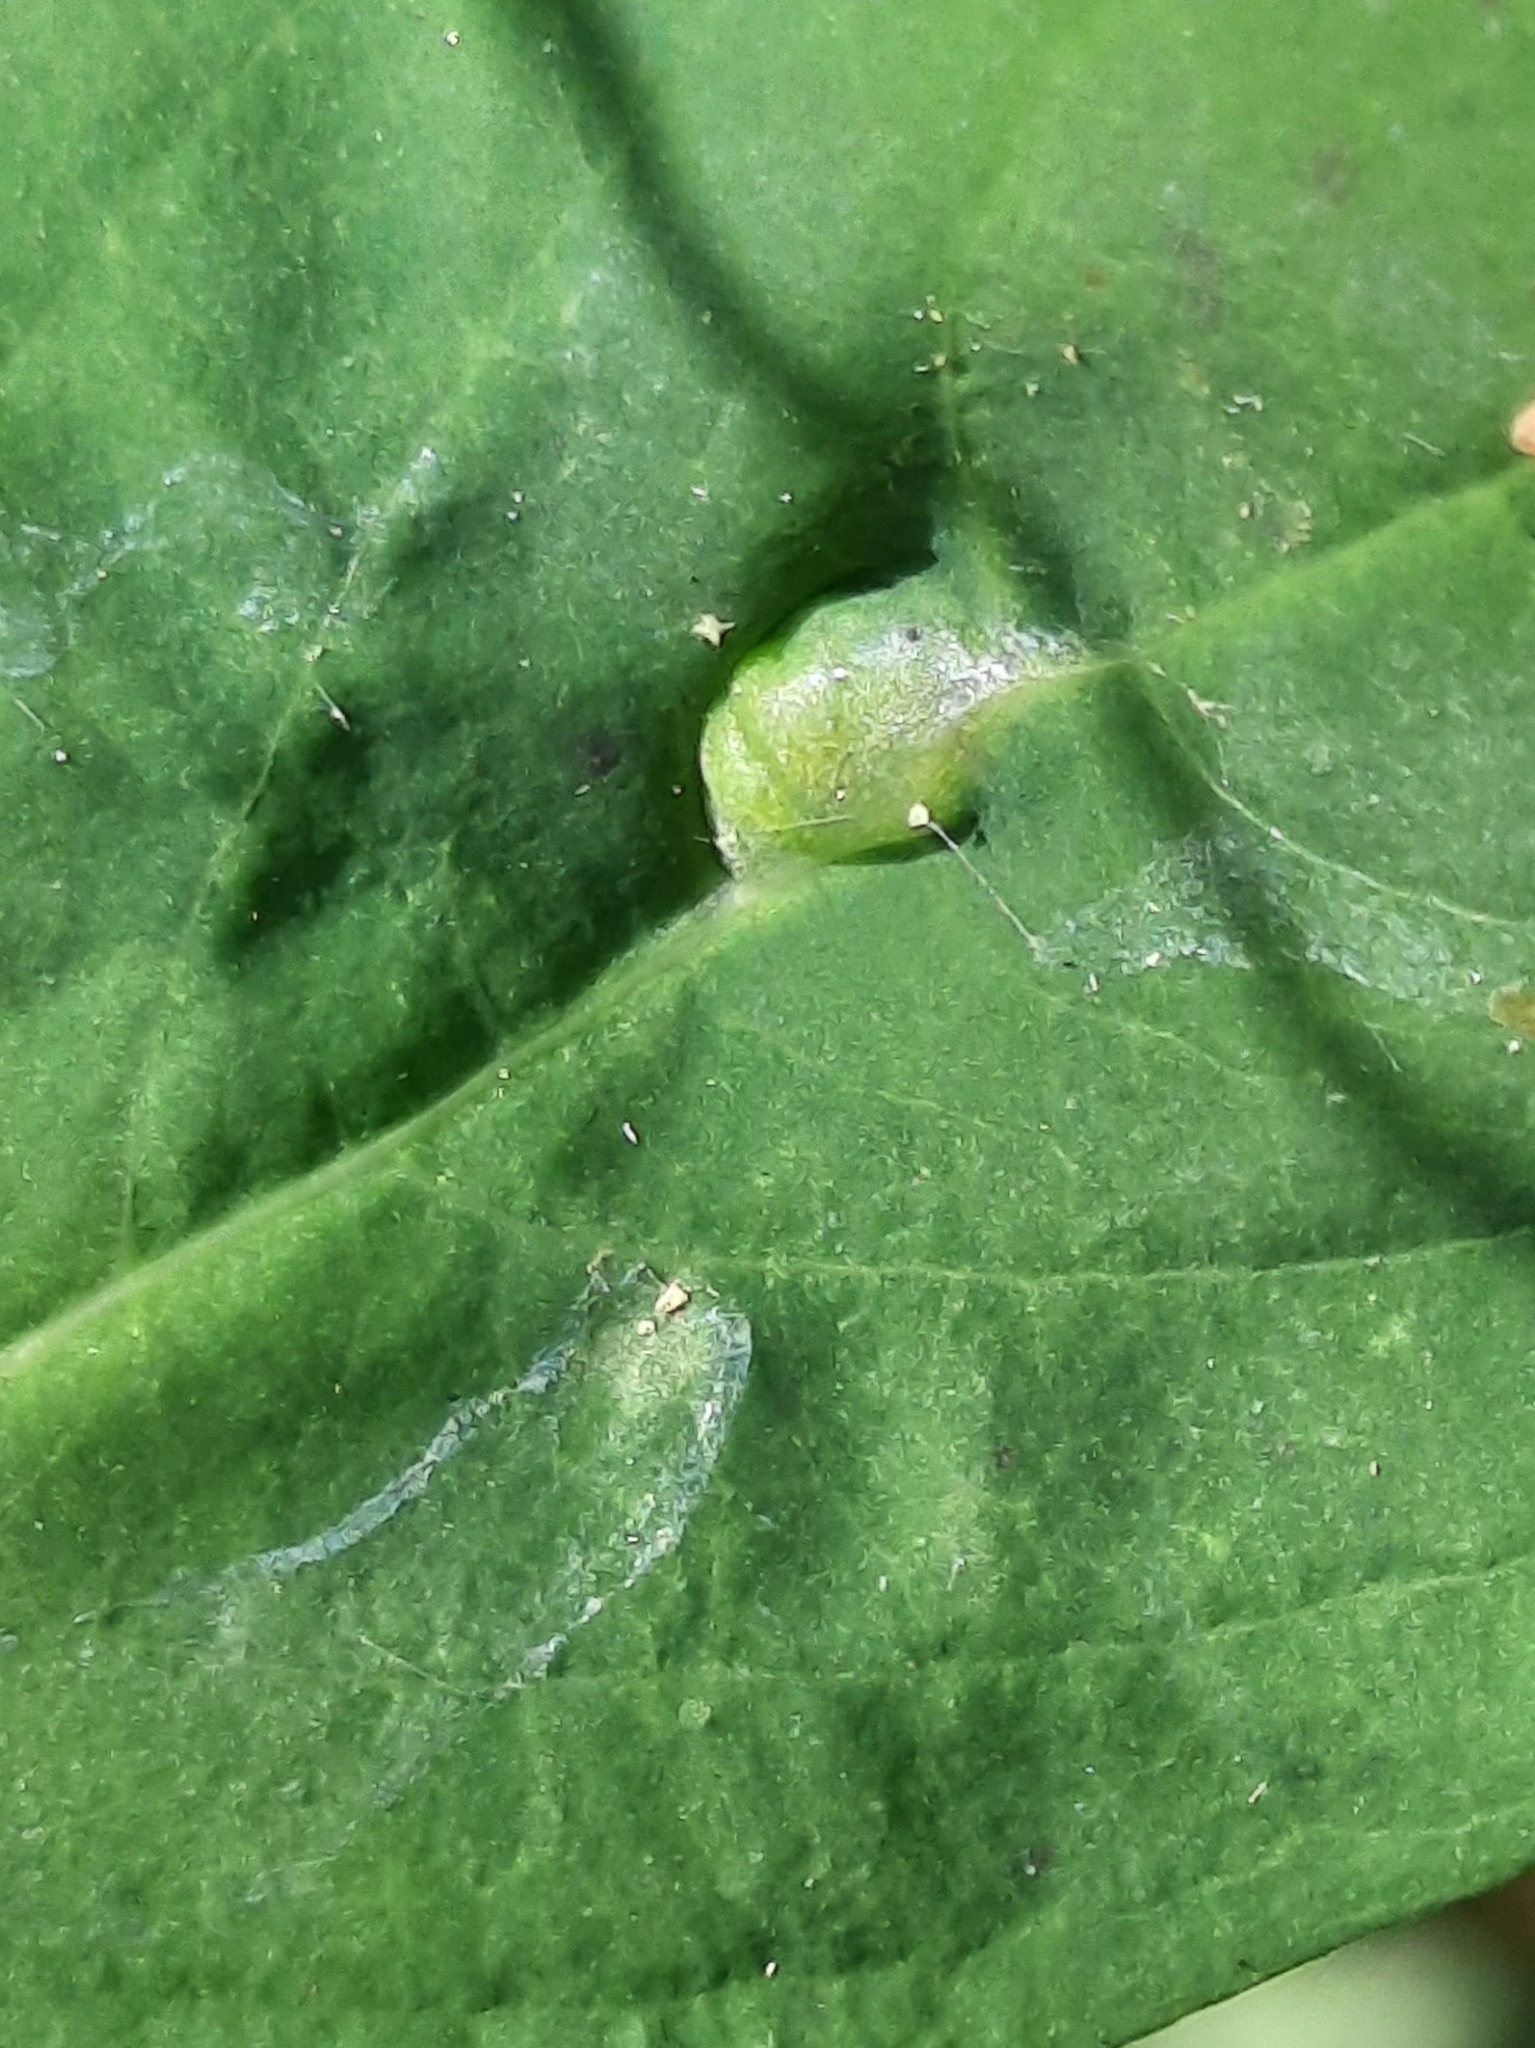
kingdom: Animalia
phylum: Arthropoda
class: Insecta
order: Diptera
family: Cecidomyiidae
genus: Neolasioptera
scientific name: Neolasioptera impatientifolia
